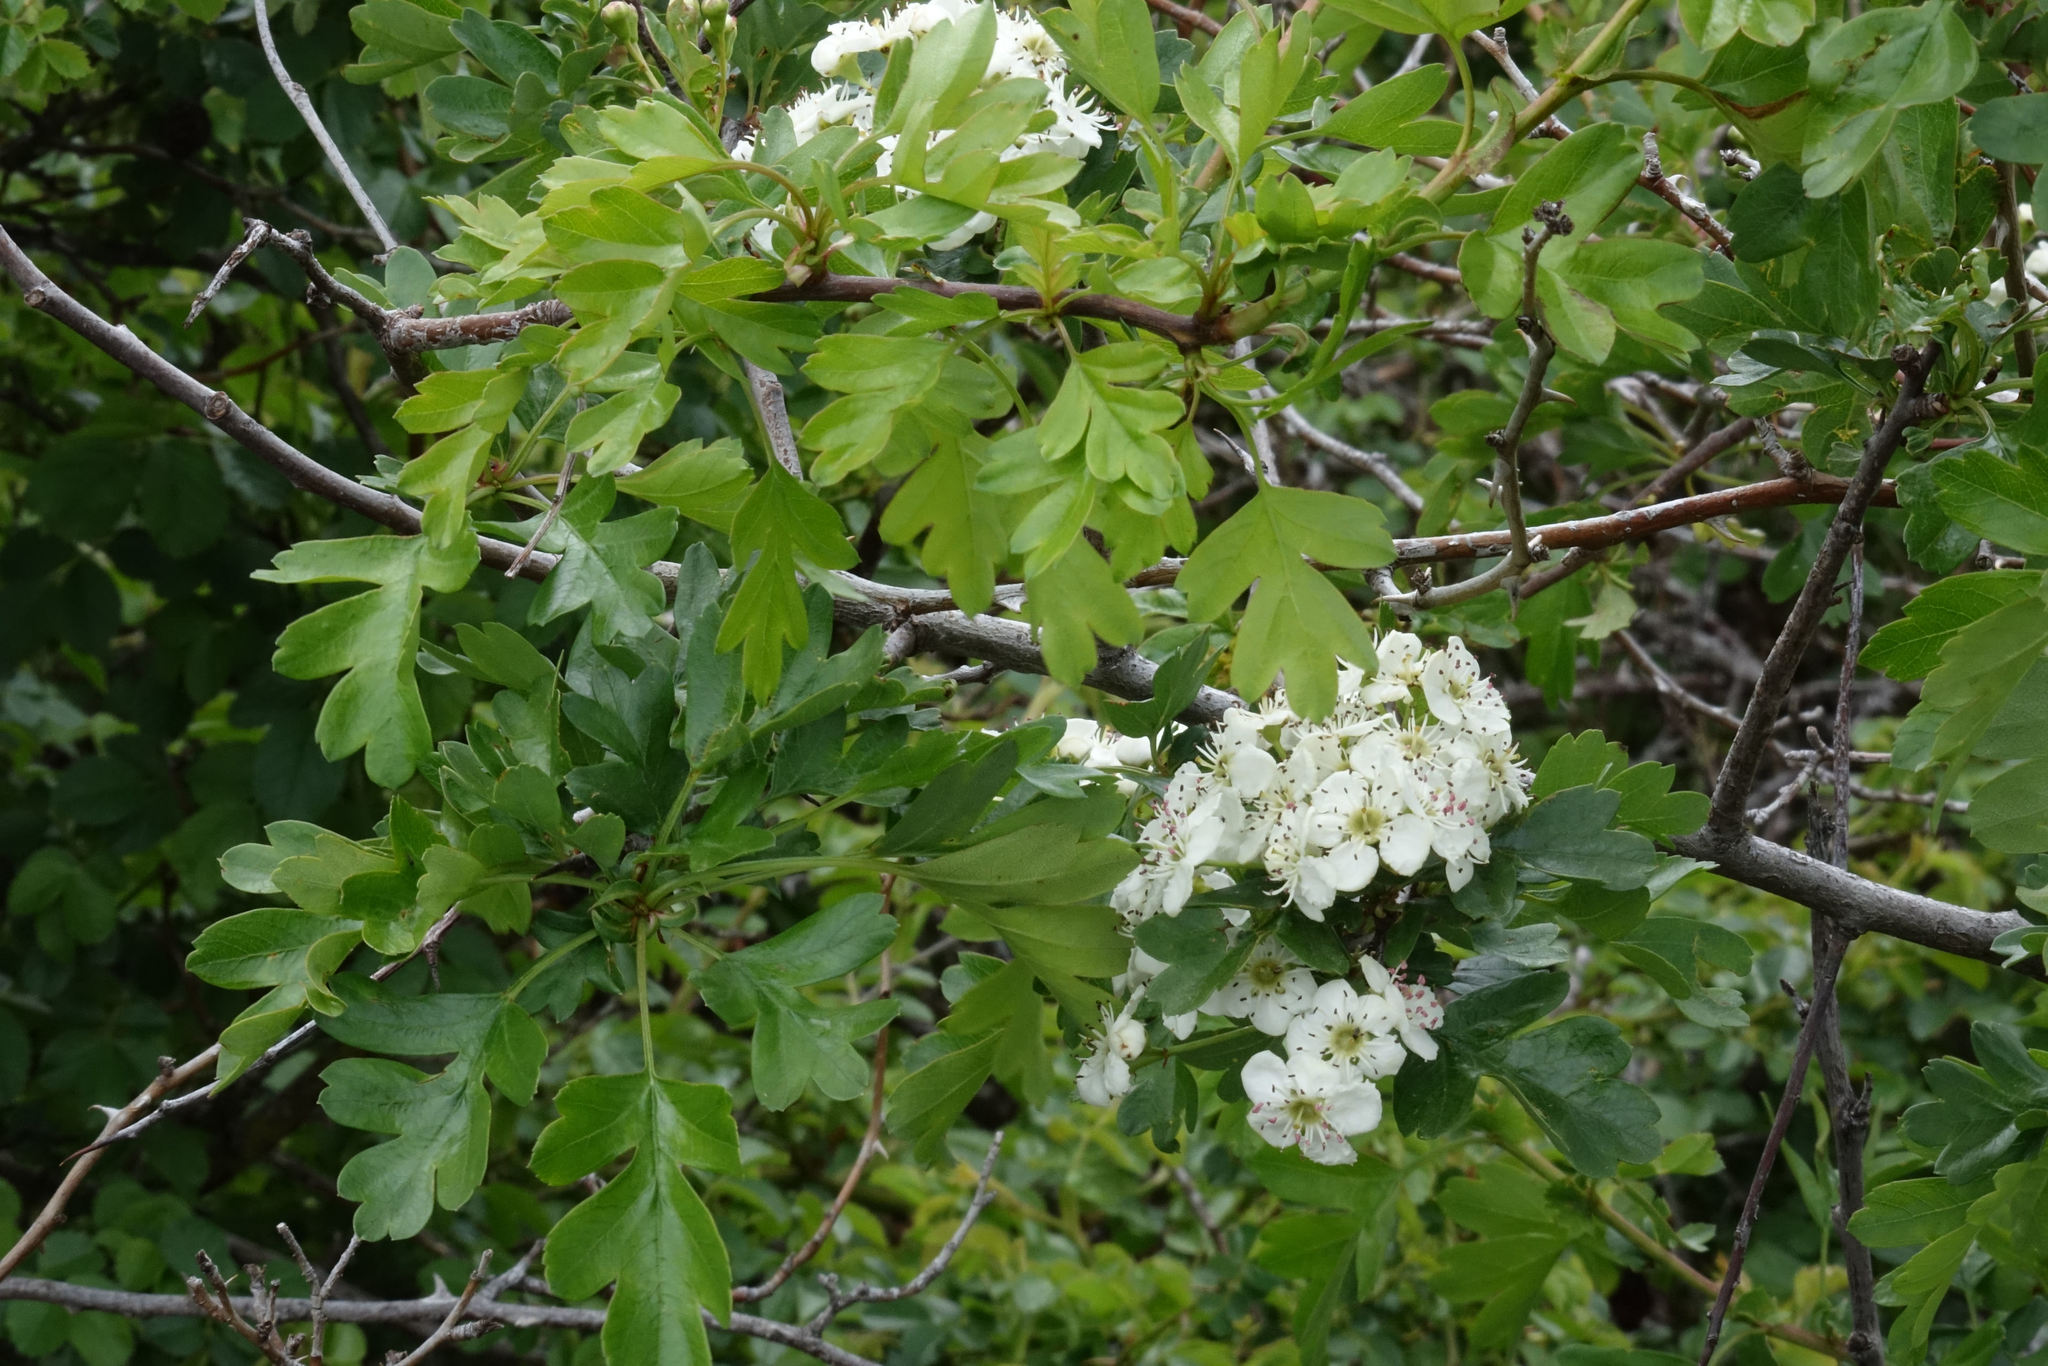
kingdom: Plantae
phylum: Tracheophyta
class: Magnoliopsida
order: Rosales
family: Rosaceae
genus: Crataegus
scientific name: Crataegus monogyna
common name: Hawthorn
